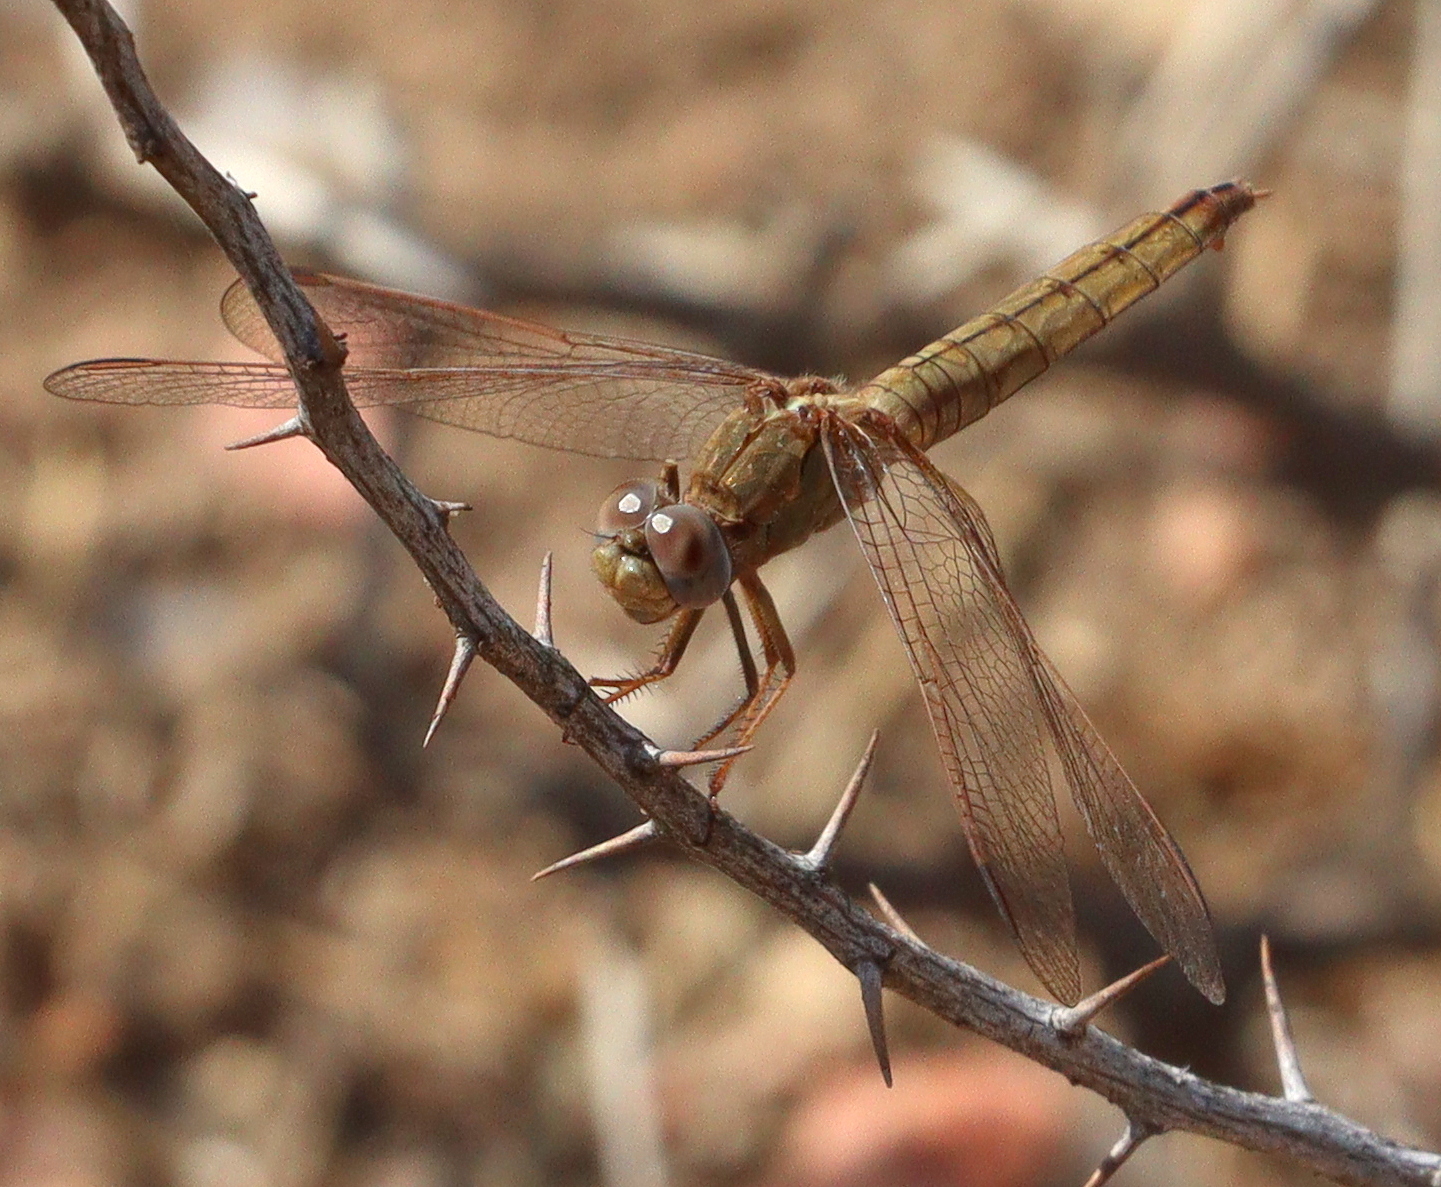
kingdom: Animalia
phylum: Arthropoda
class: Insecta
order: Odonata
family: Libellulidae
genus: Crocothemis
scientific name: Crocothemis erythraea
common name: Scarlet dragonfly
